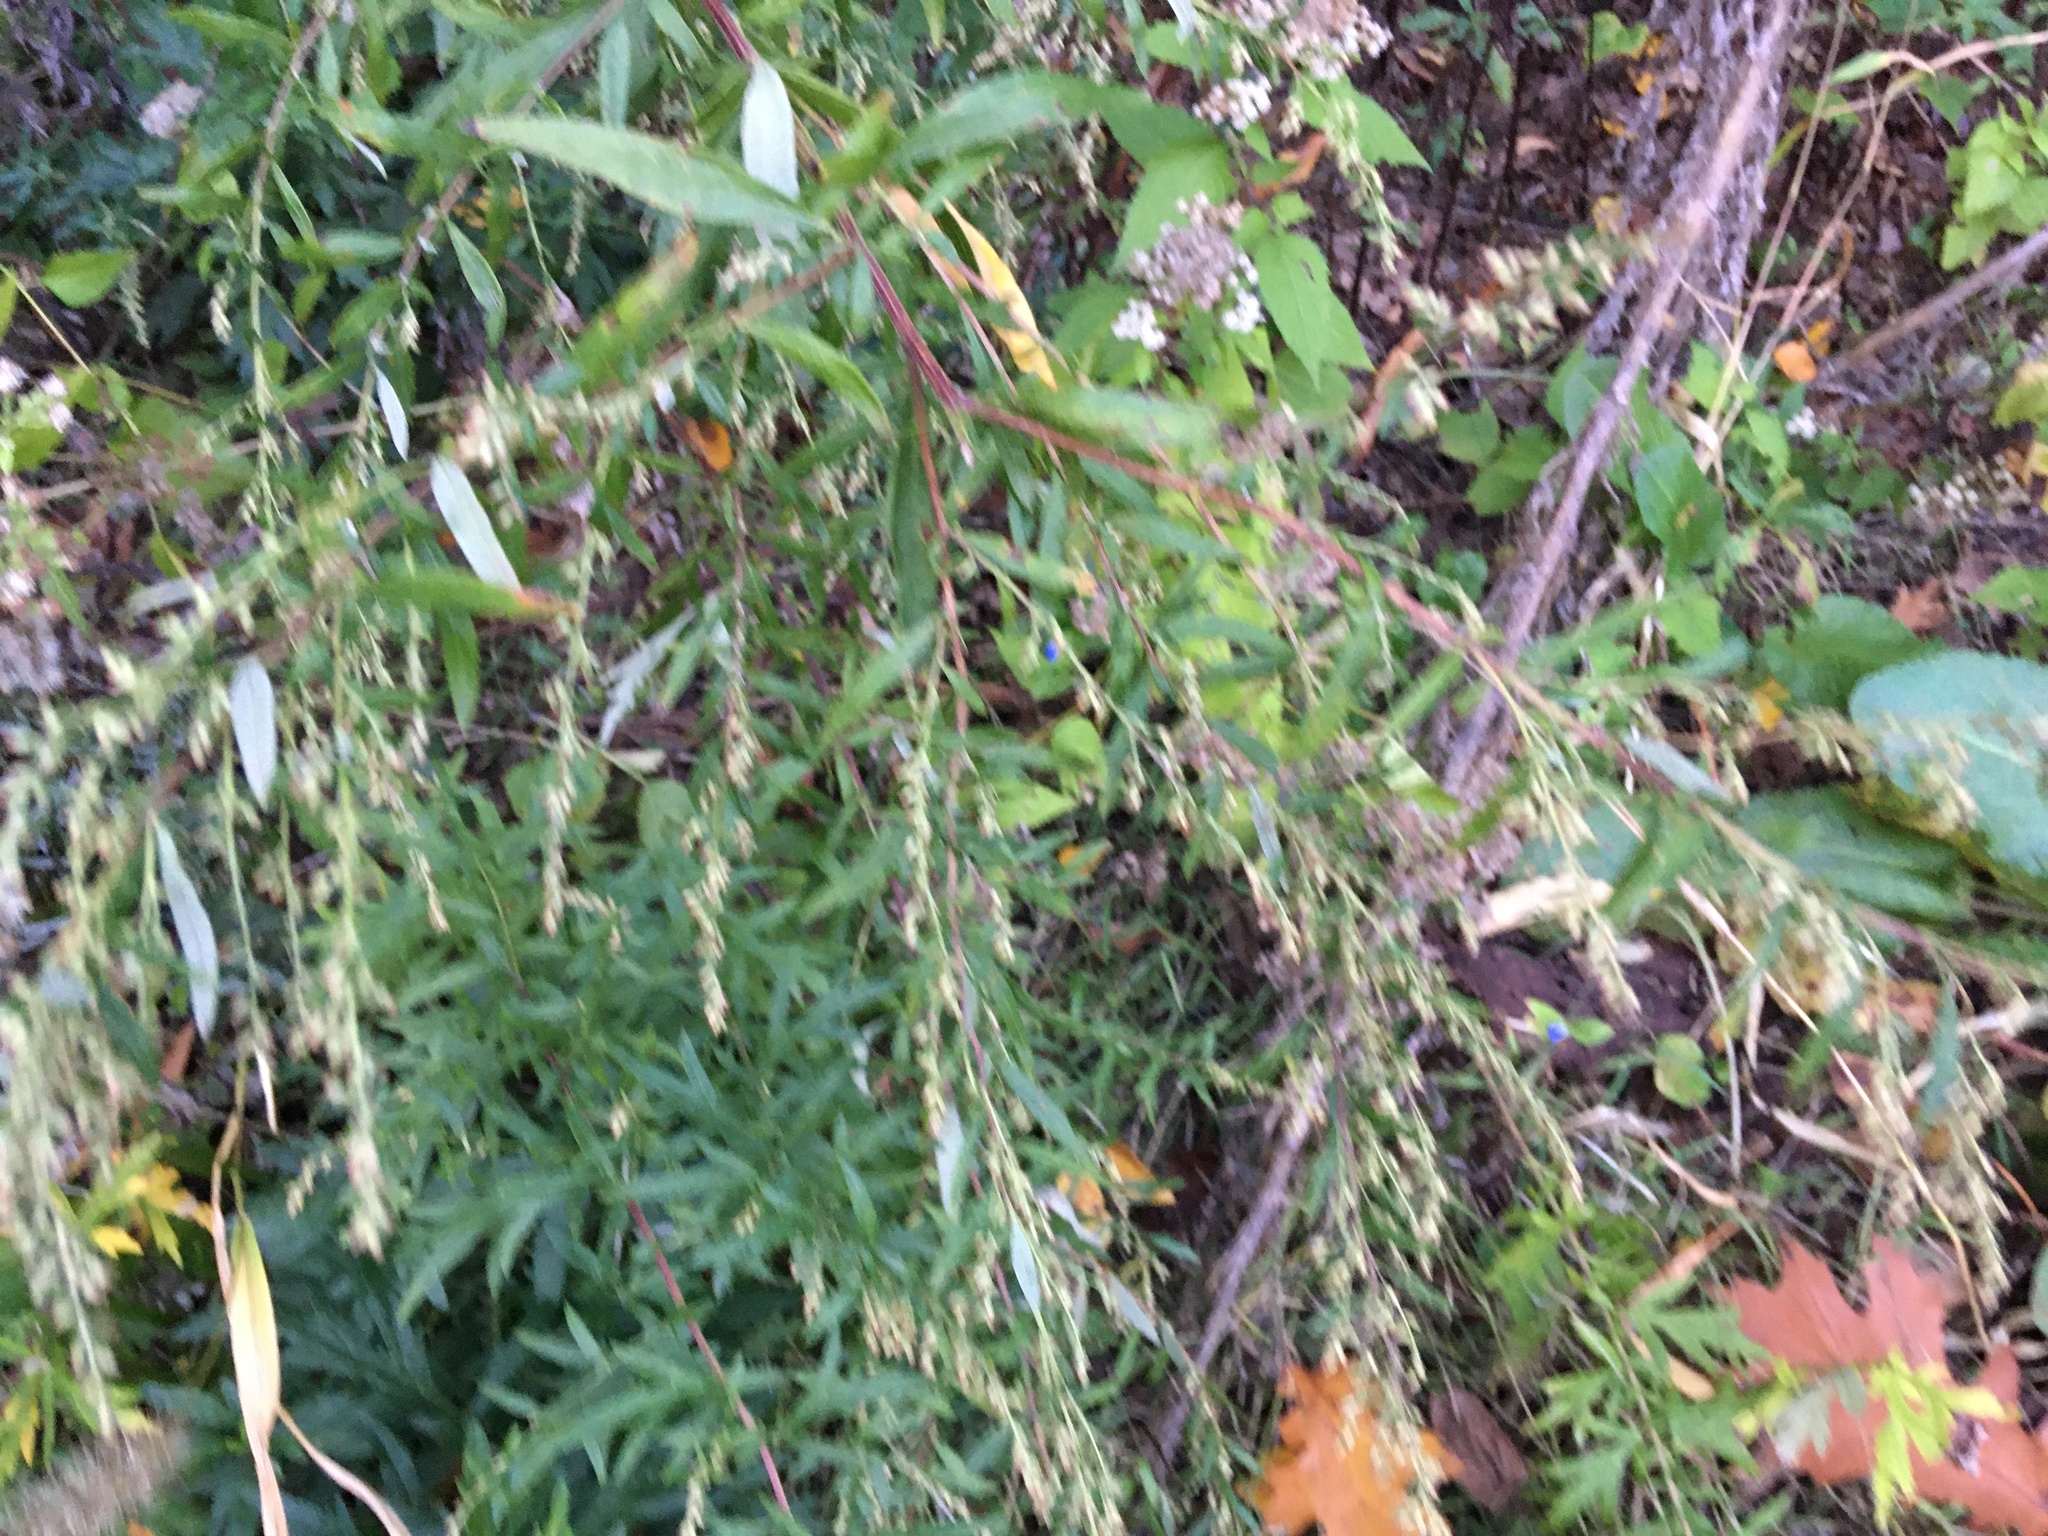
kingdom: Plantae
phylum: Tracheophyta
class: Magnoliopsida
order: Asterales
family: Asteraceae
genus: Artemisia
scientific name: Artemisia vulgaris
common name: Mugwort
